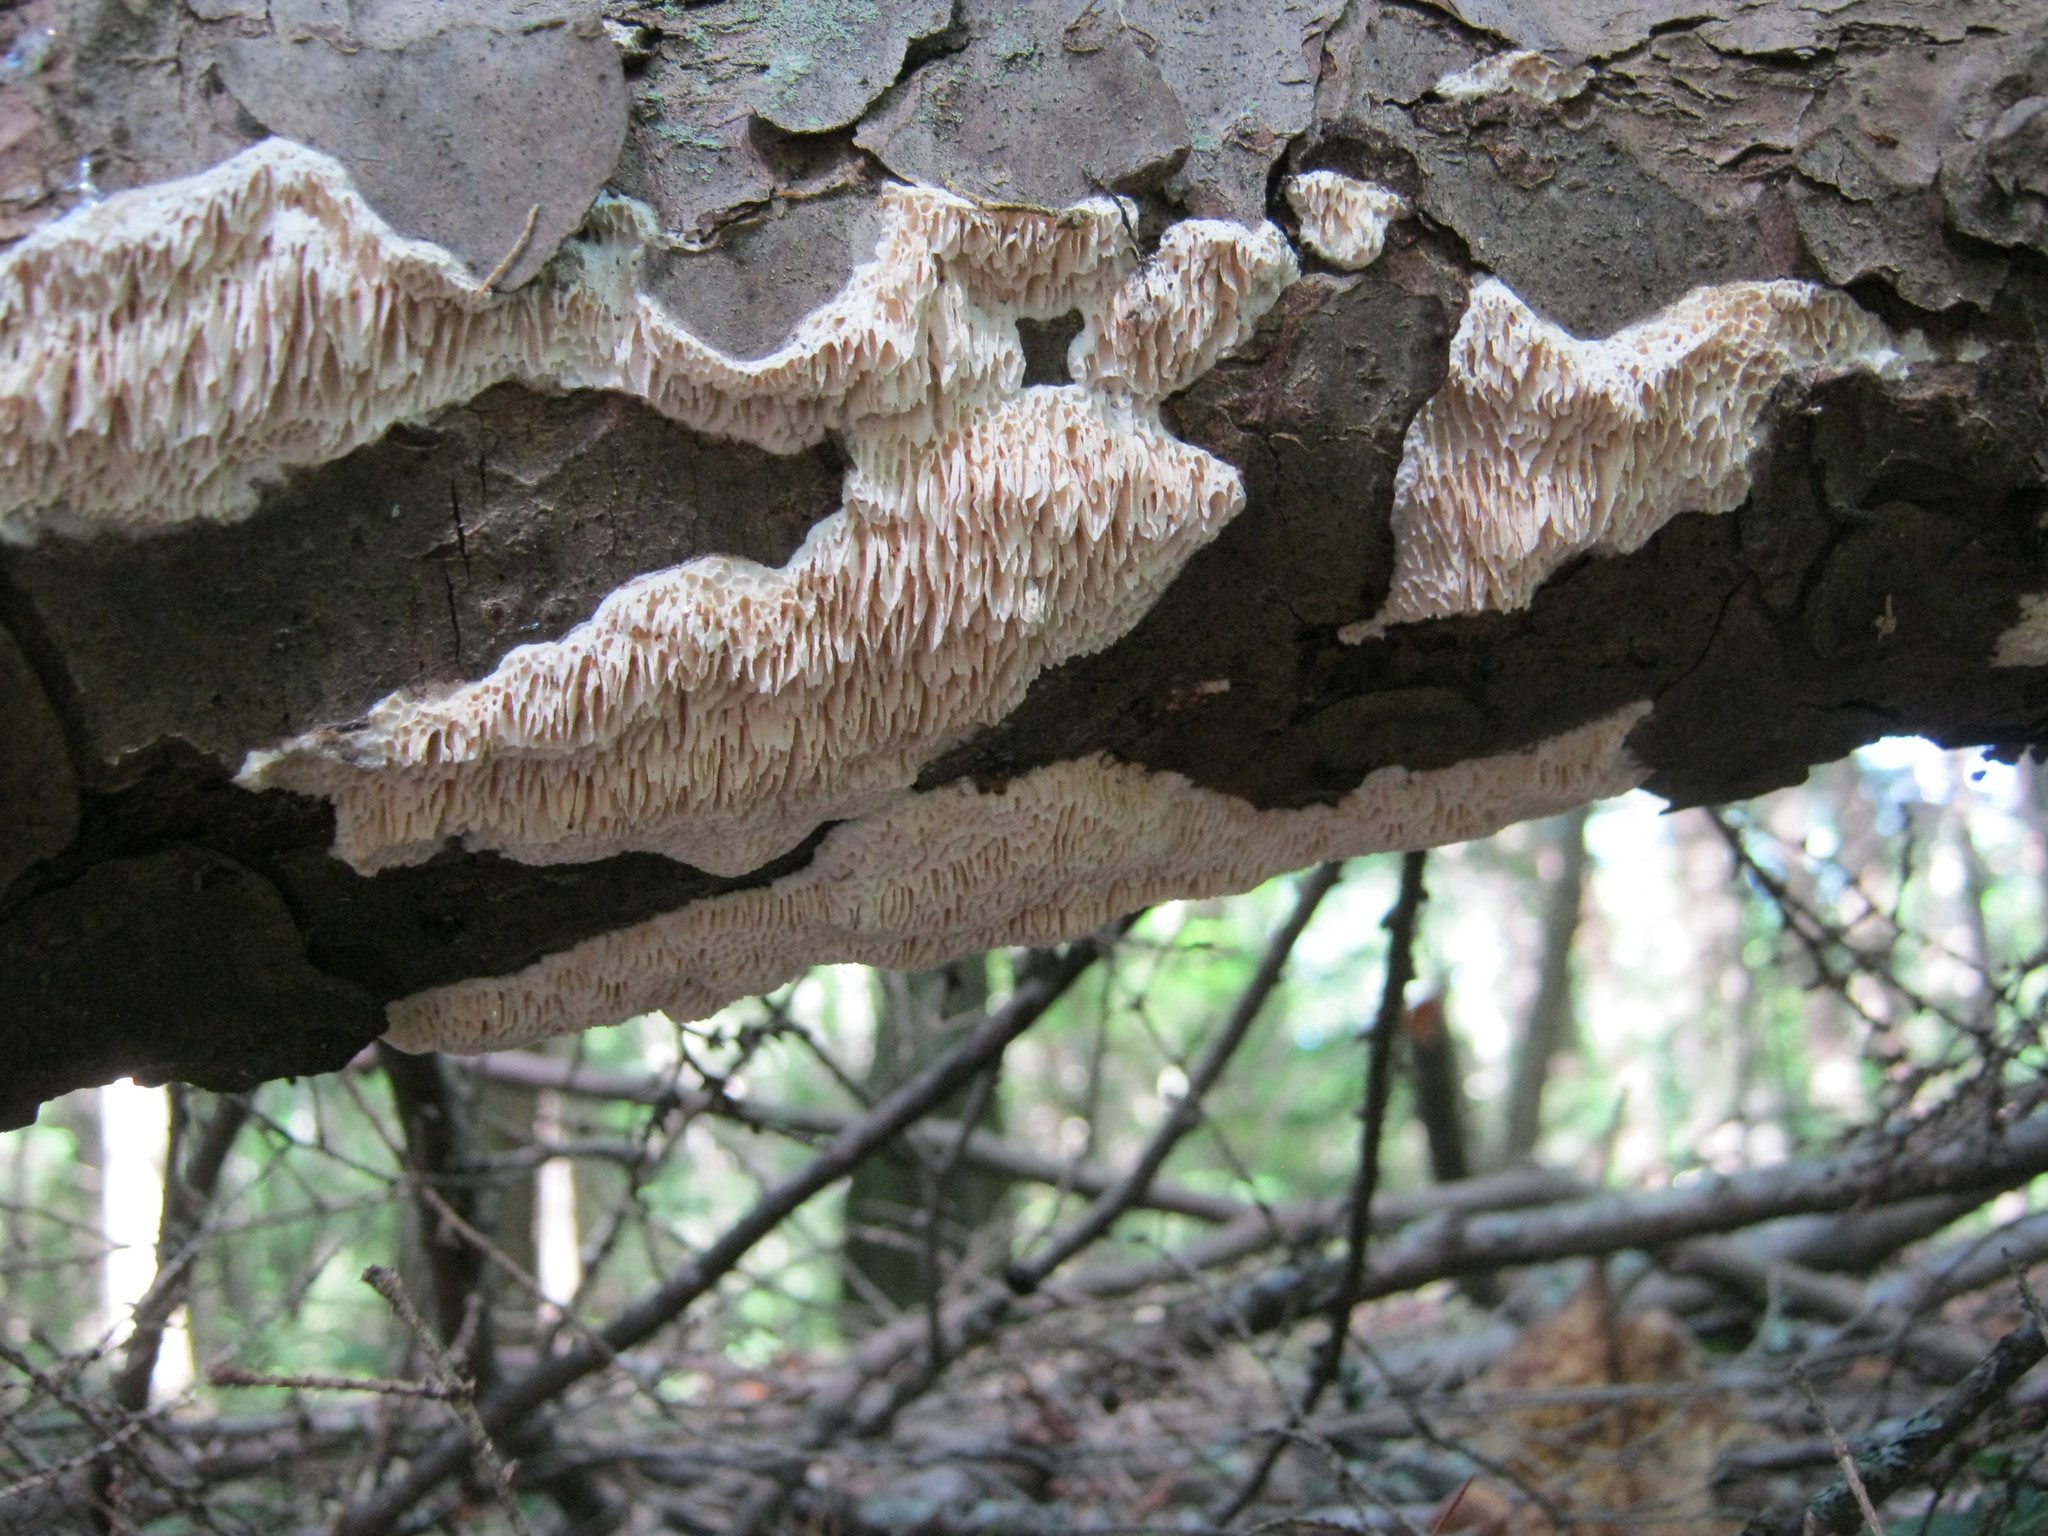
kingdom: Fungi
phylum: Basidiomycota
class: Agaricomycetes
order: Polyporales
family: Irpicaceae
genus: Irpex
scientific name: Irpex lacteus
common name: Milk-white toothed polypore
